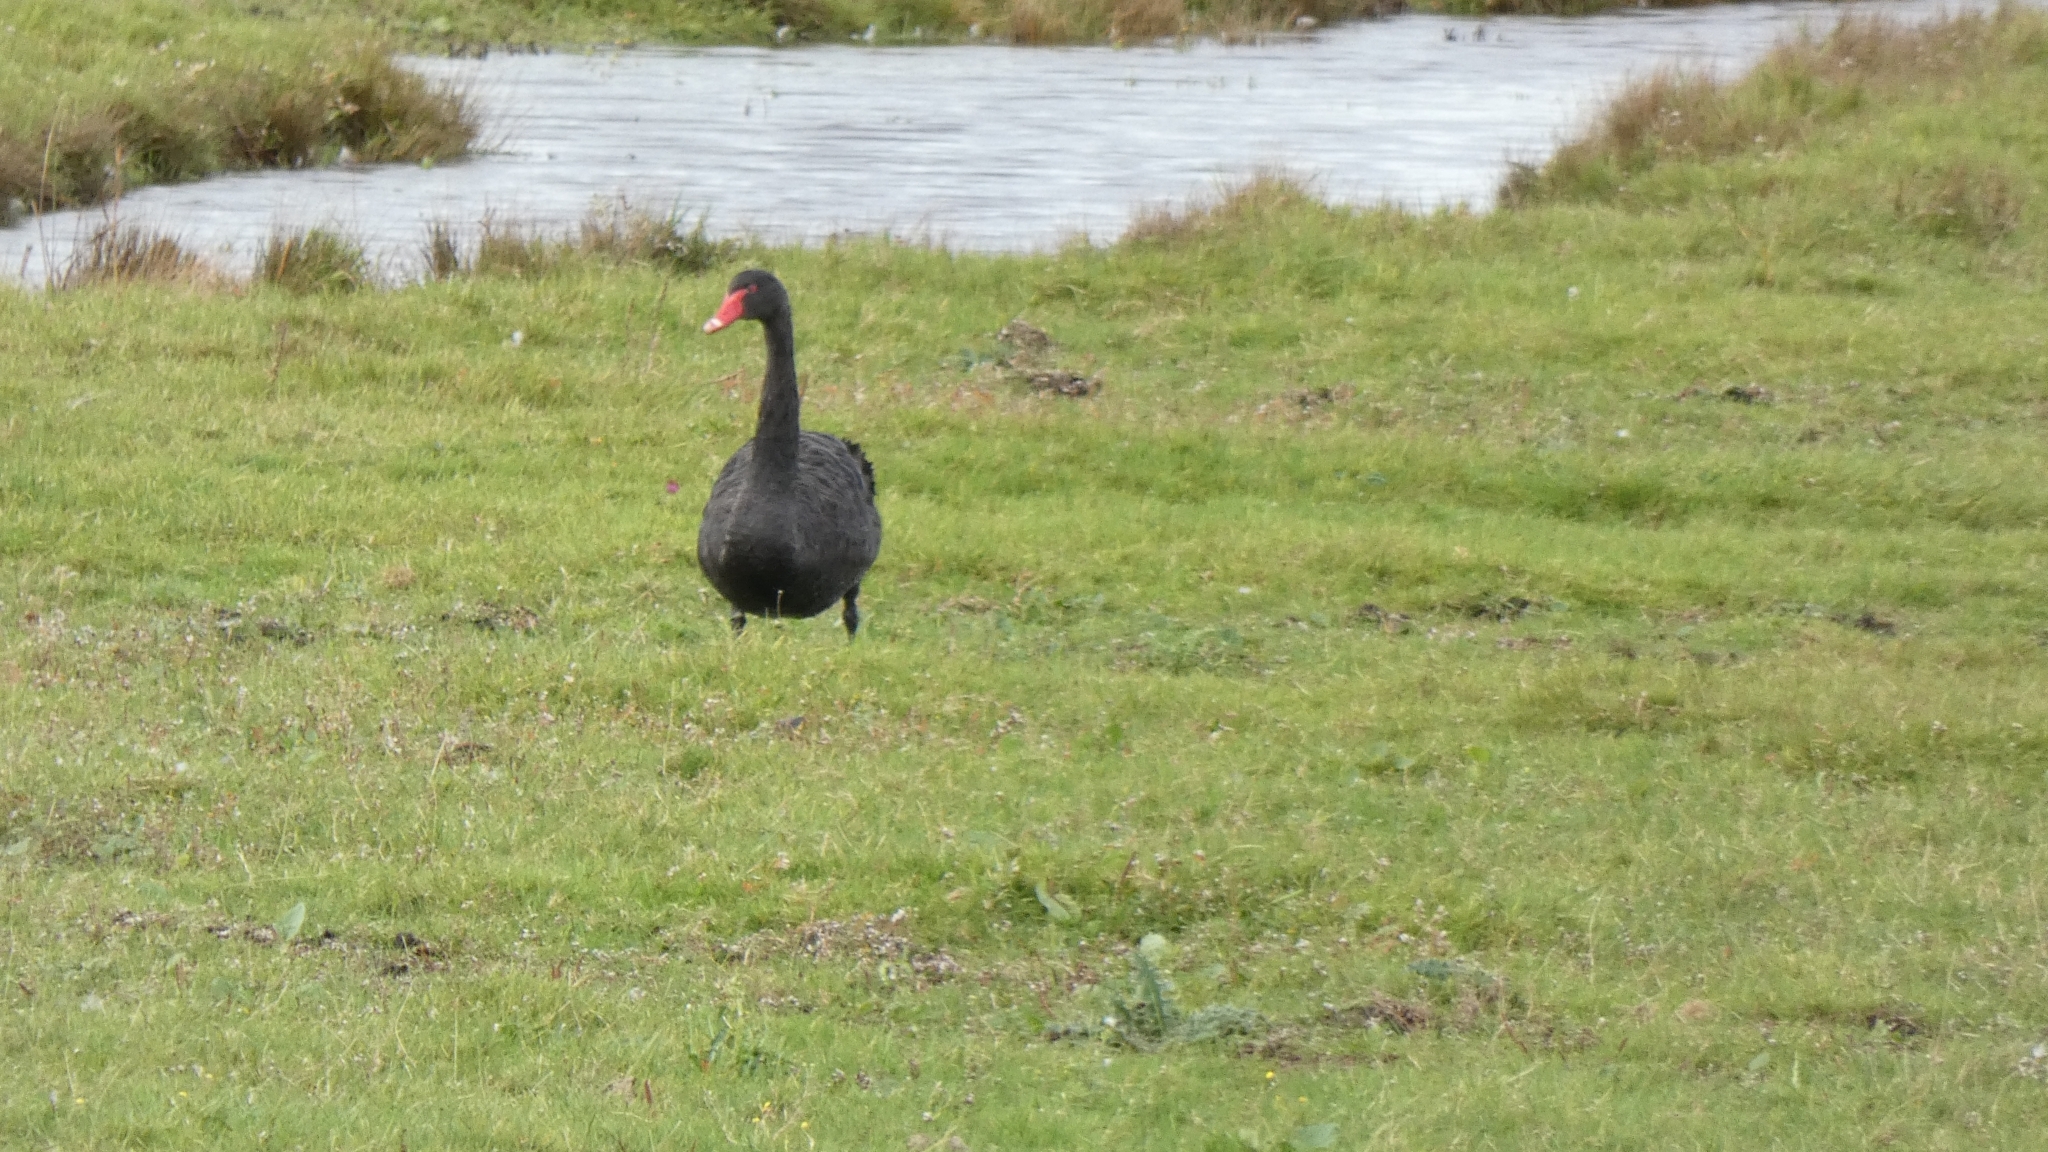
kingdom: Animalia
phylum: Chordata
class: Aves
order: Anseriformes
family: Anatidae
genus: Cygnus
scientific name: Cygnus atratus
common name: Black swan
